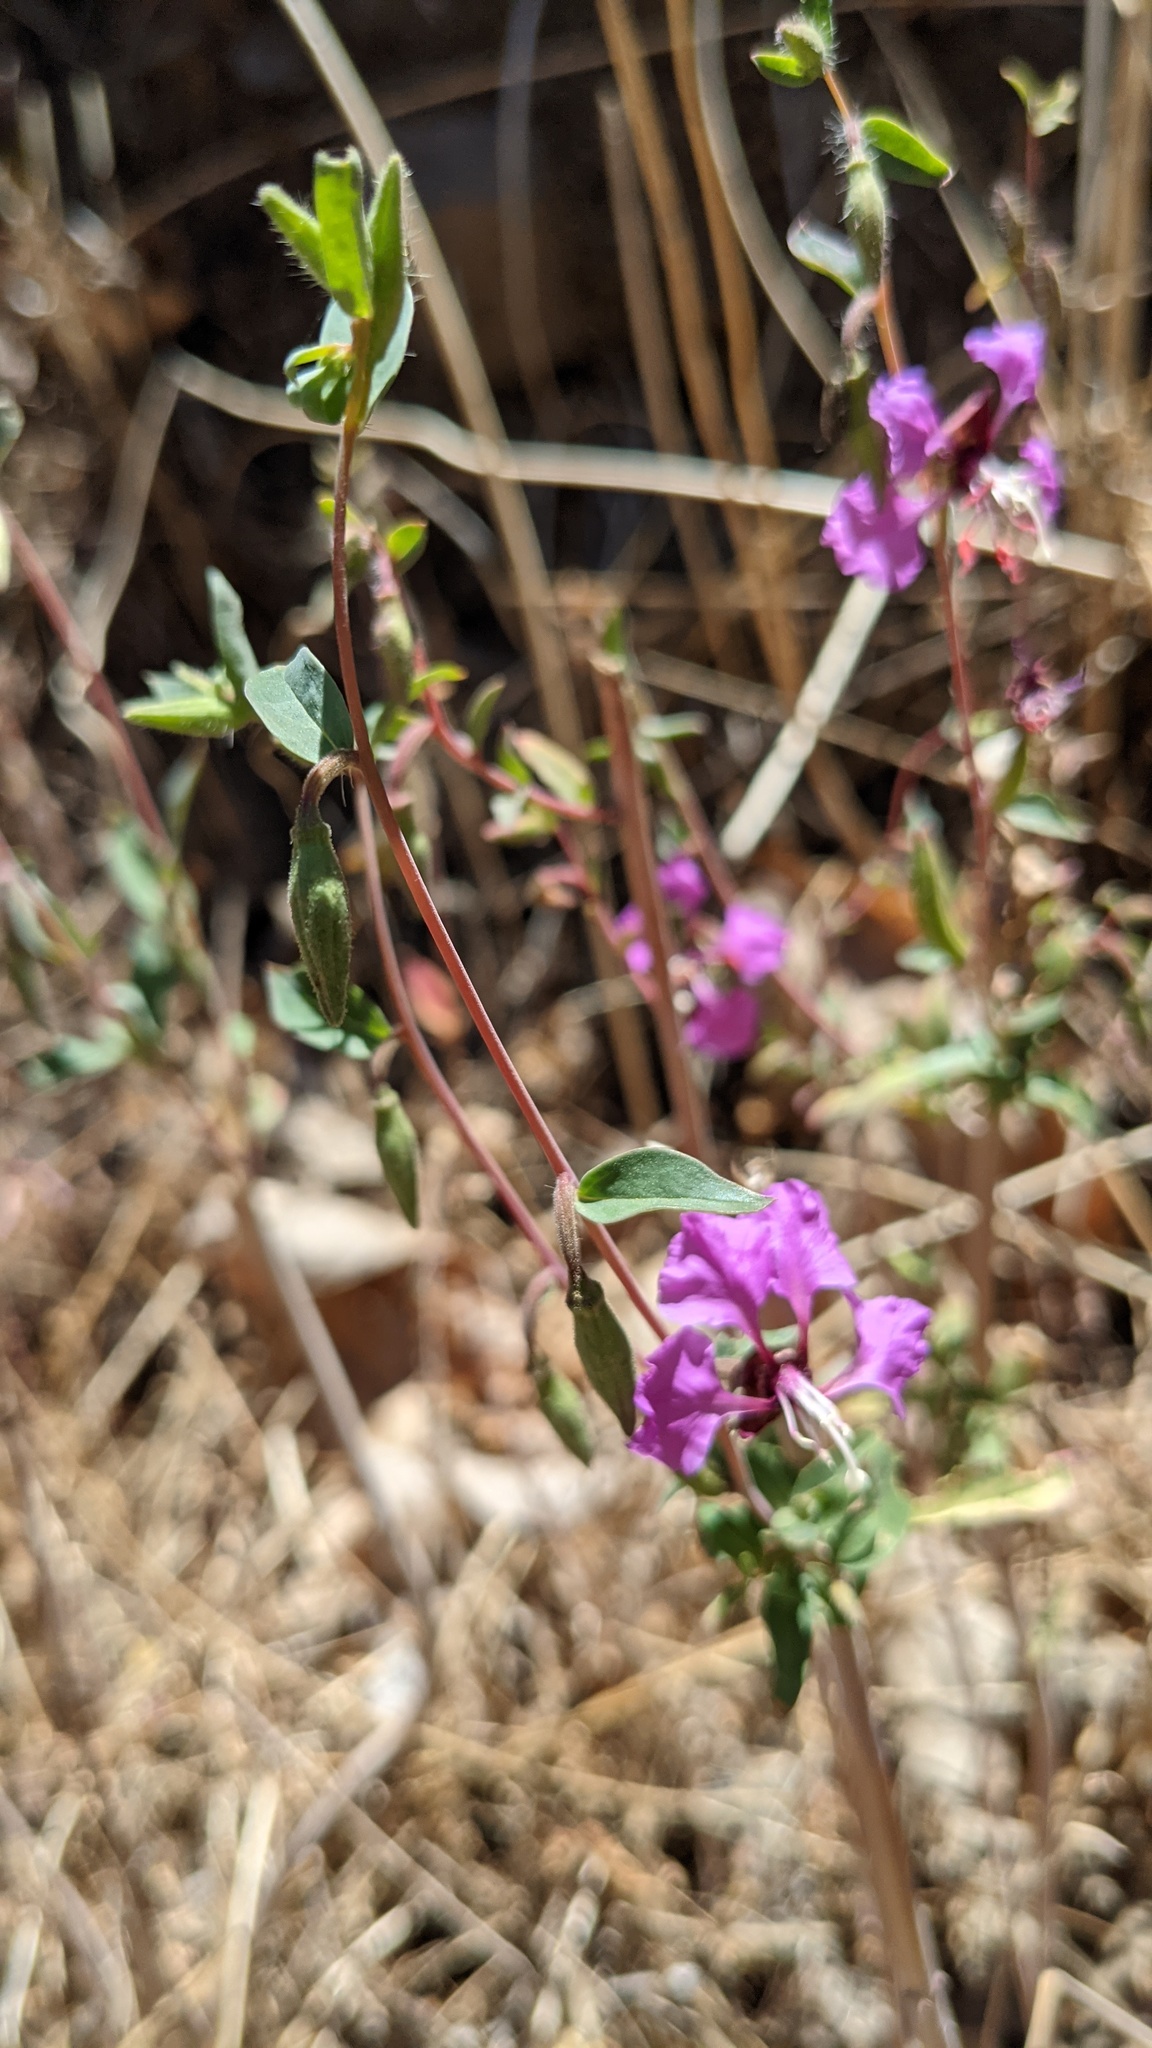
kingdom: Plantae
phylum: Tracheophyta
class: Magnoliopsida
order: Myrtales
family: Onagraceae
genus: Clarkia
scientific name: Clarkia unguiculata
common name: Clarkia
